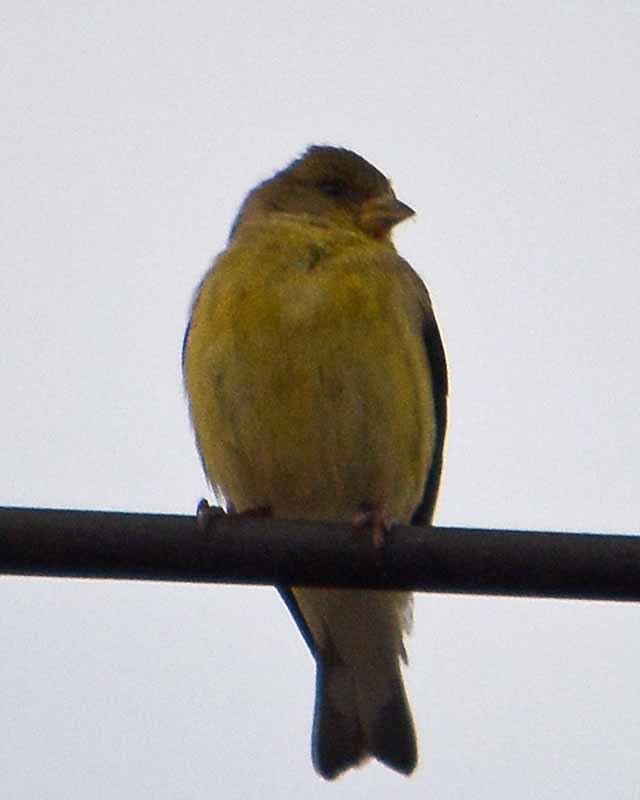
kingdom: Animalia
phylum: Chordata
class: Aves
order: Passeriformes
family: Fringillidae
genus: Spinus
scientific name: Spinus psaltria
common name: Lesser goldfinch
